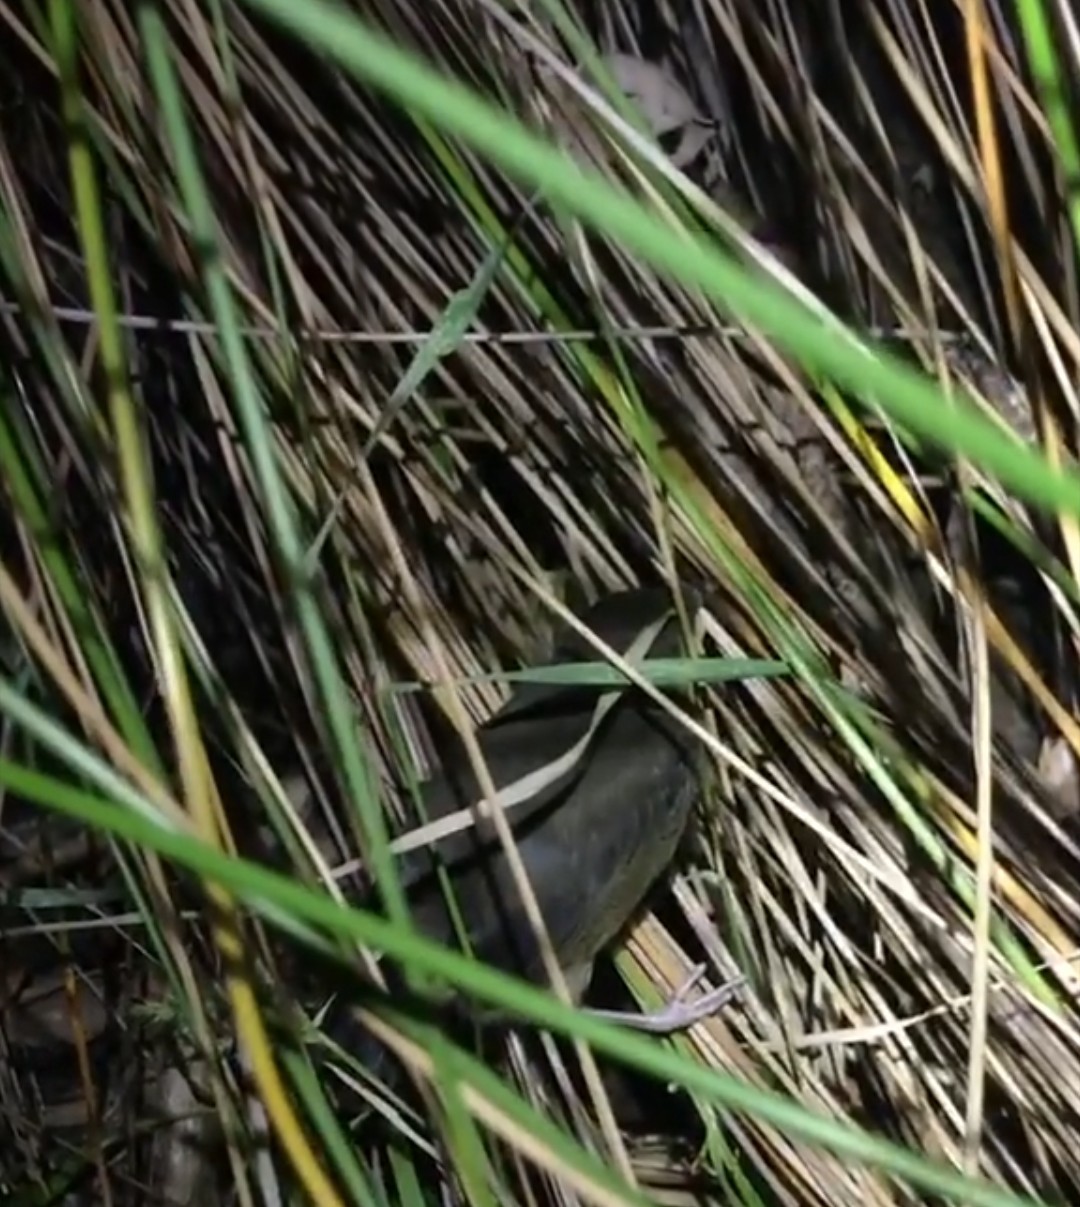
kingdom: Animalia
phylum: Chordata
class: Aves
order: Gruiformes
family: Rallidae
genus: Porzana
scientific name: Porzana tabuensis
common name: Spotless crake
